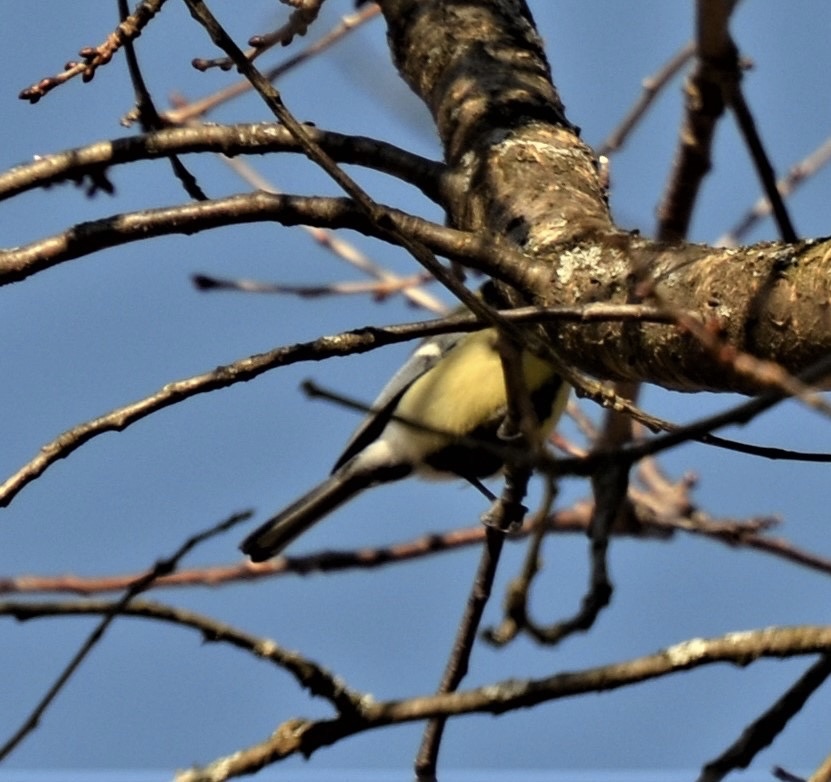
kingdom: Animalia
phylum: Chordata
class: Aves
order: Passeriformes
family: Paridae
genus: Parus
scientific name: Parus major
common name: Great tit
